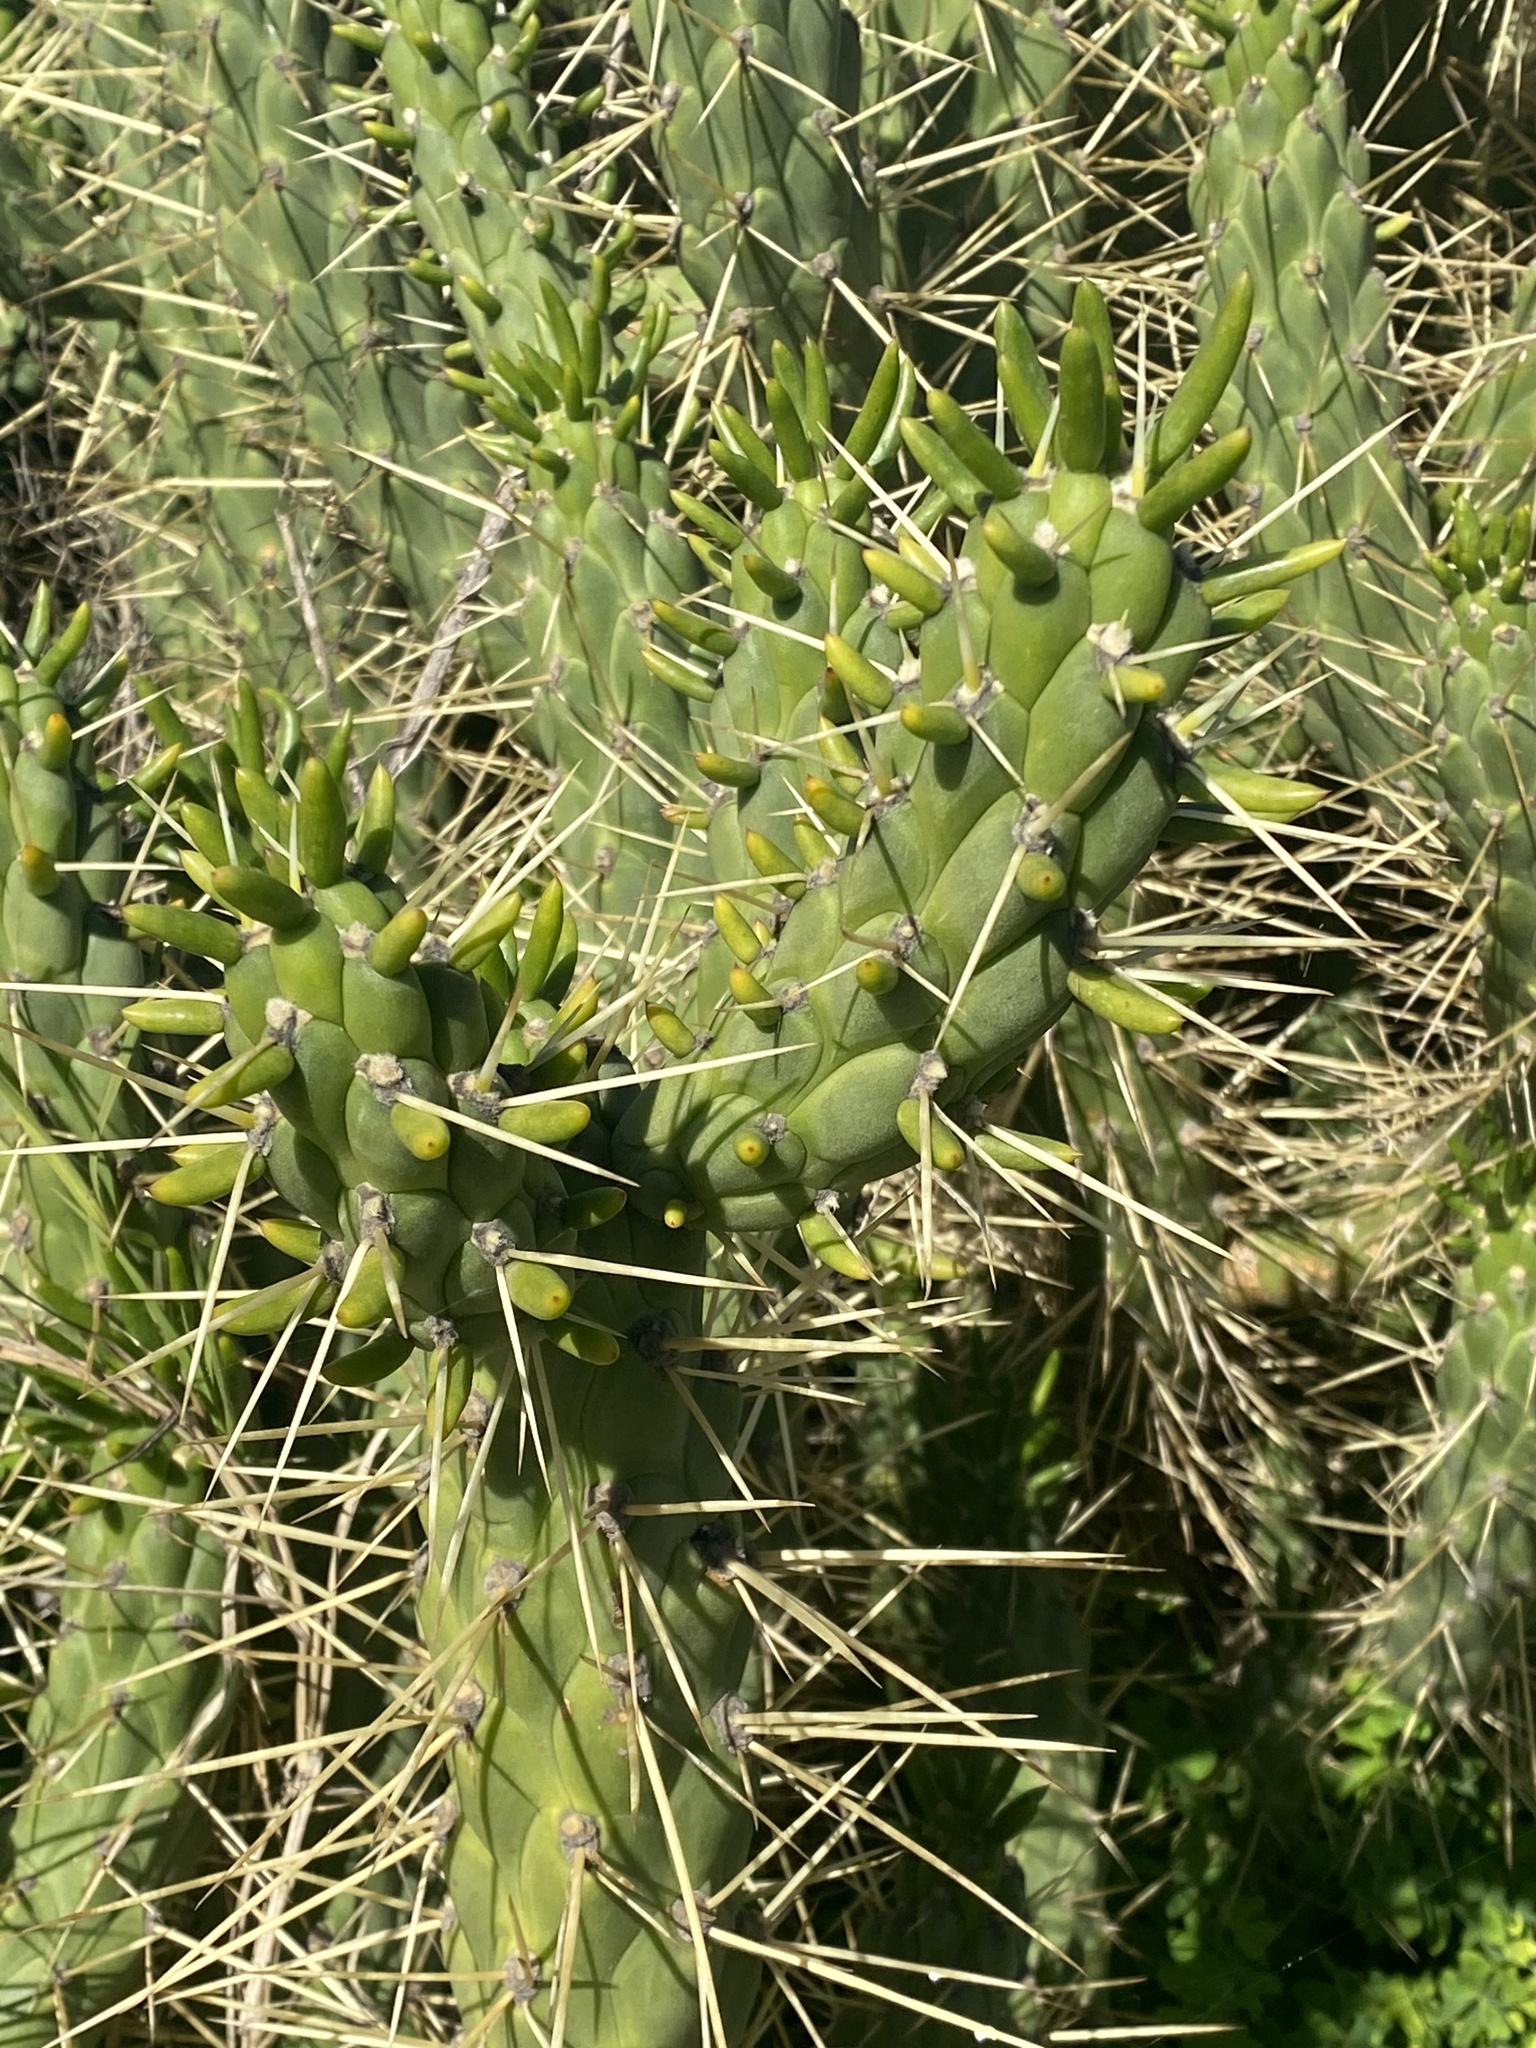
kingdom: Plantae
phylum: Tracheophyta
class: Magnoliopsida
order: Caryophyllales
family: Cactaceae
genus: Austrocylindropuntia
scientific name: Austrocylindropuntia subulata
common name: Eve's needle cactus
